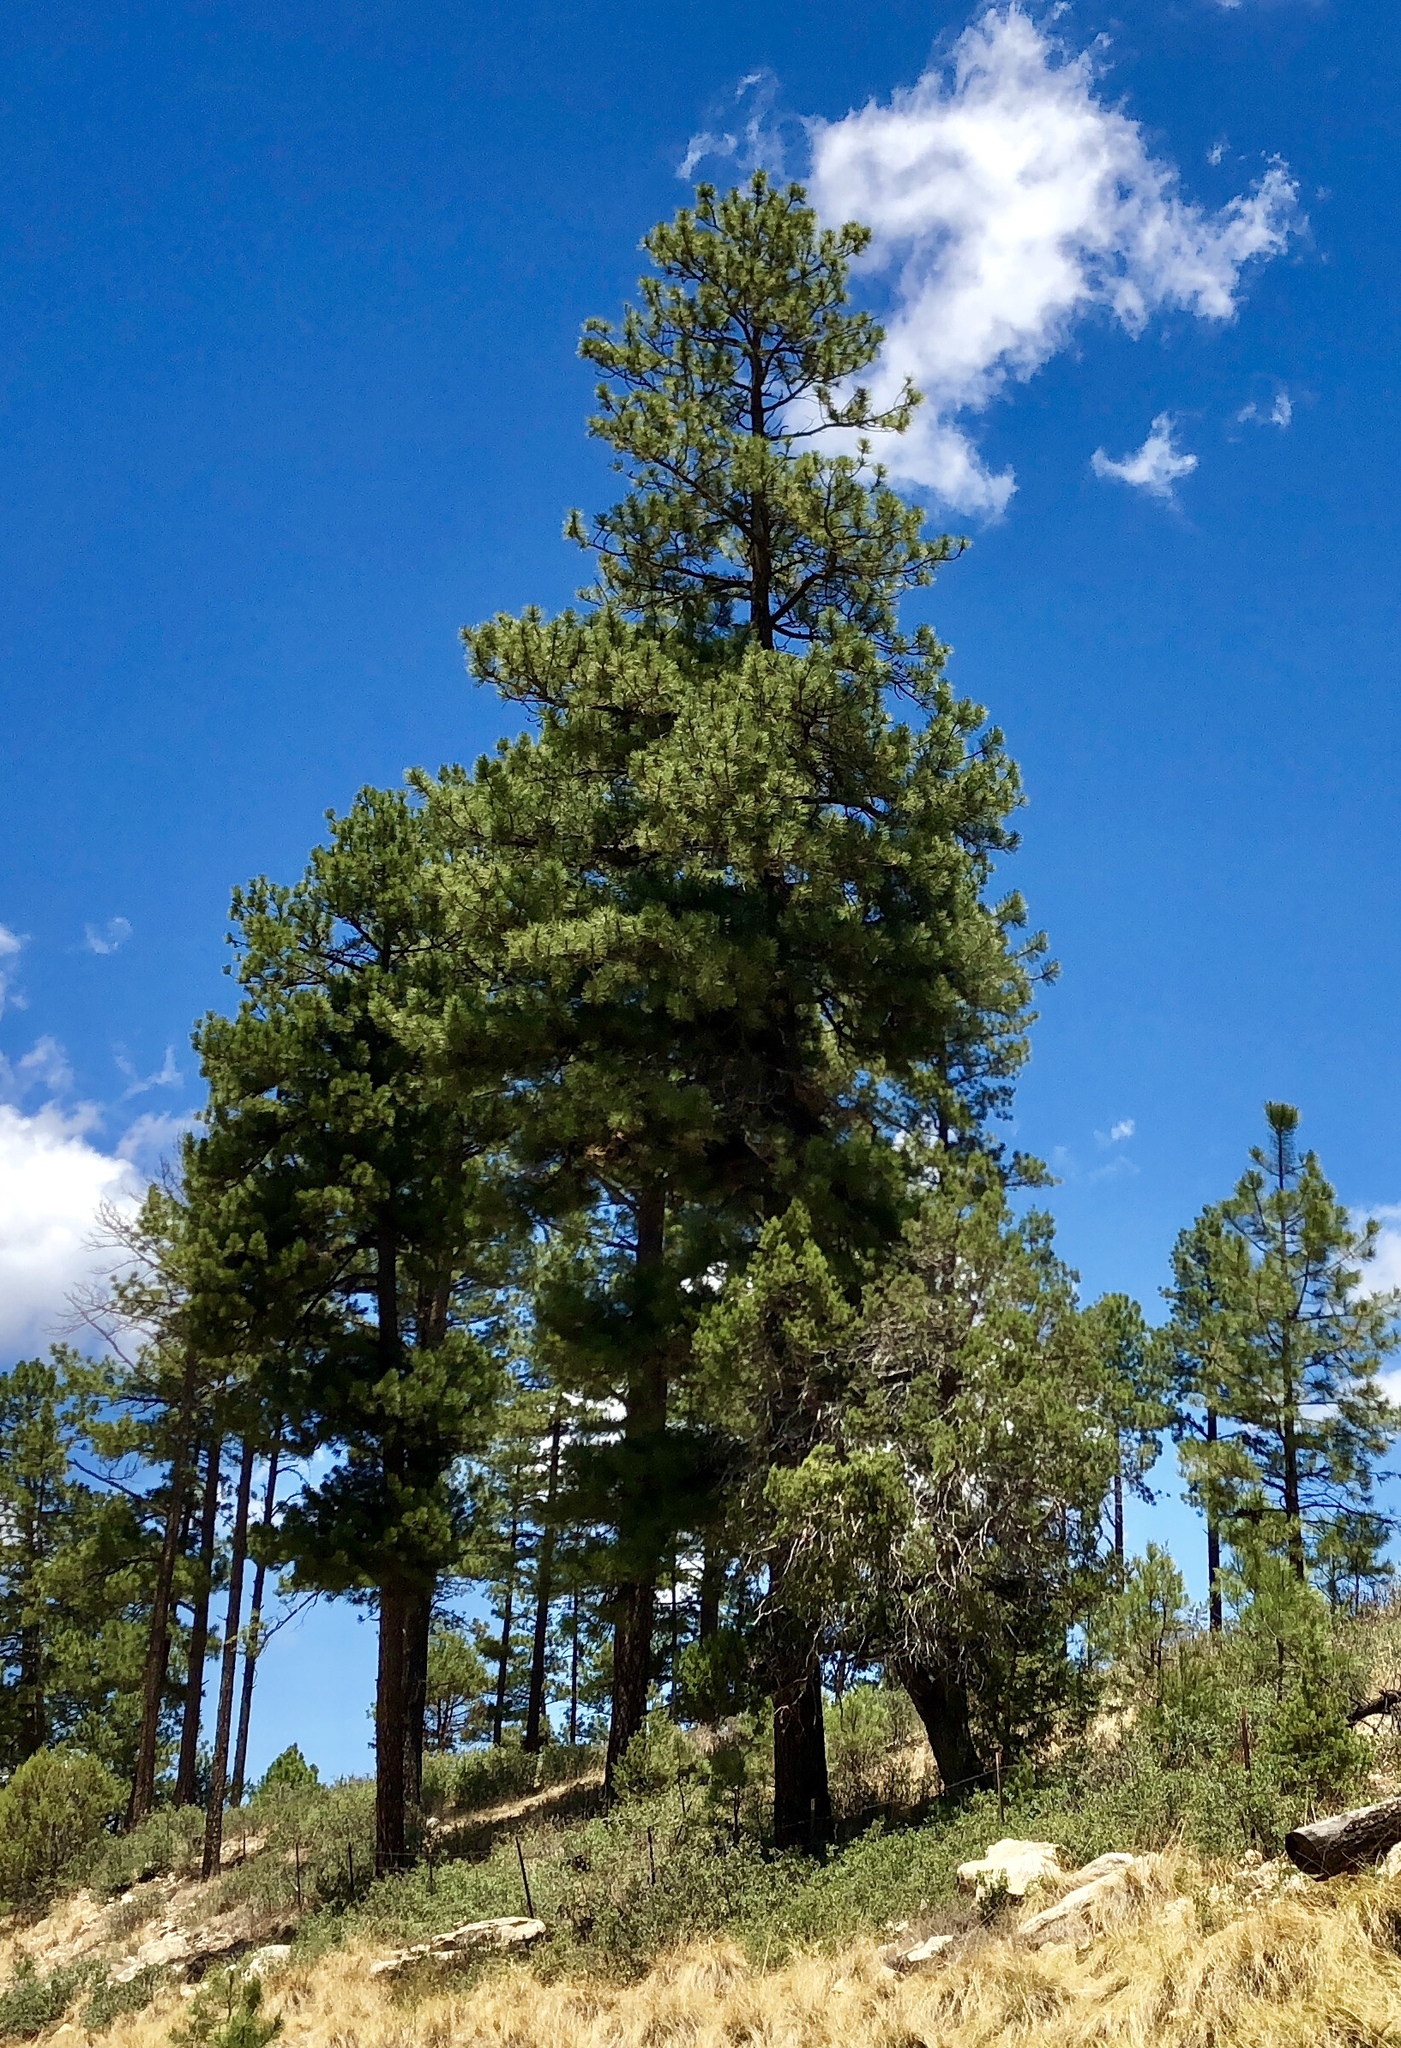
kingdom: Plantae
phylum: Tracheophyta
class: Pinopsida
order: Pinales
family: Pinaceae
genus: Pinus
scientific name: Pinus ponderosa
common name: Western yellow-pine
